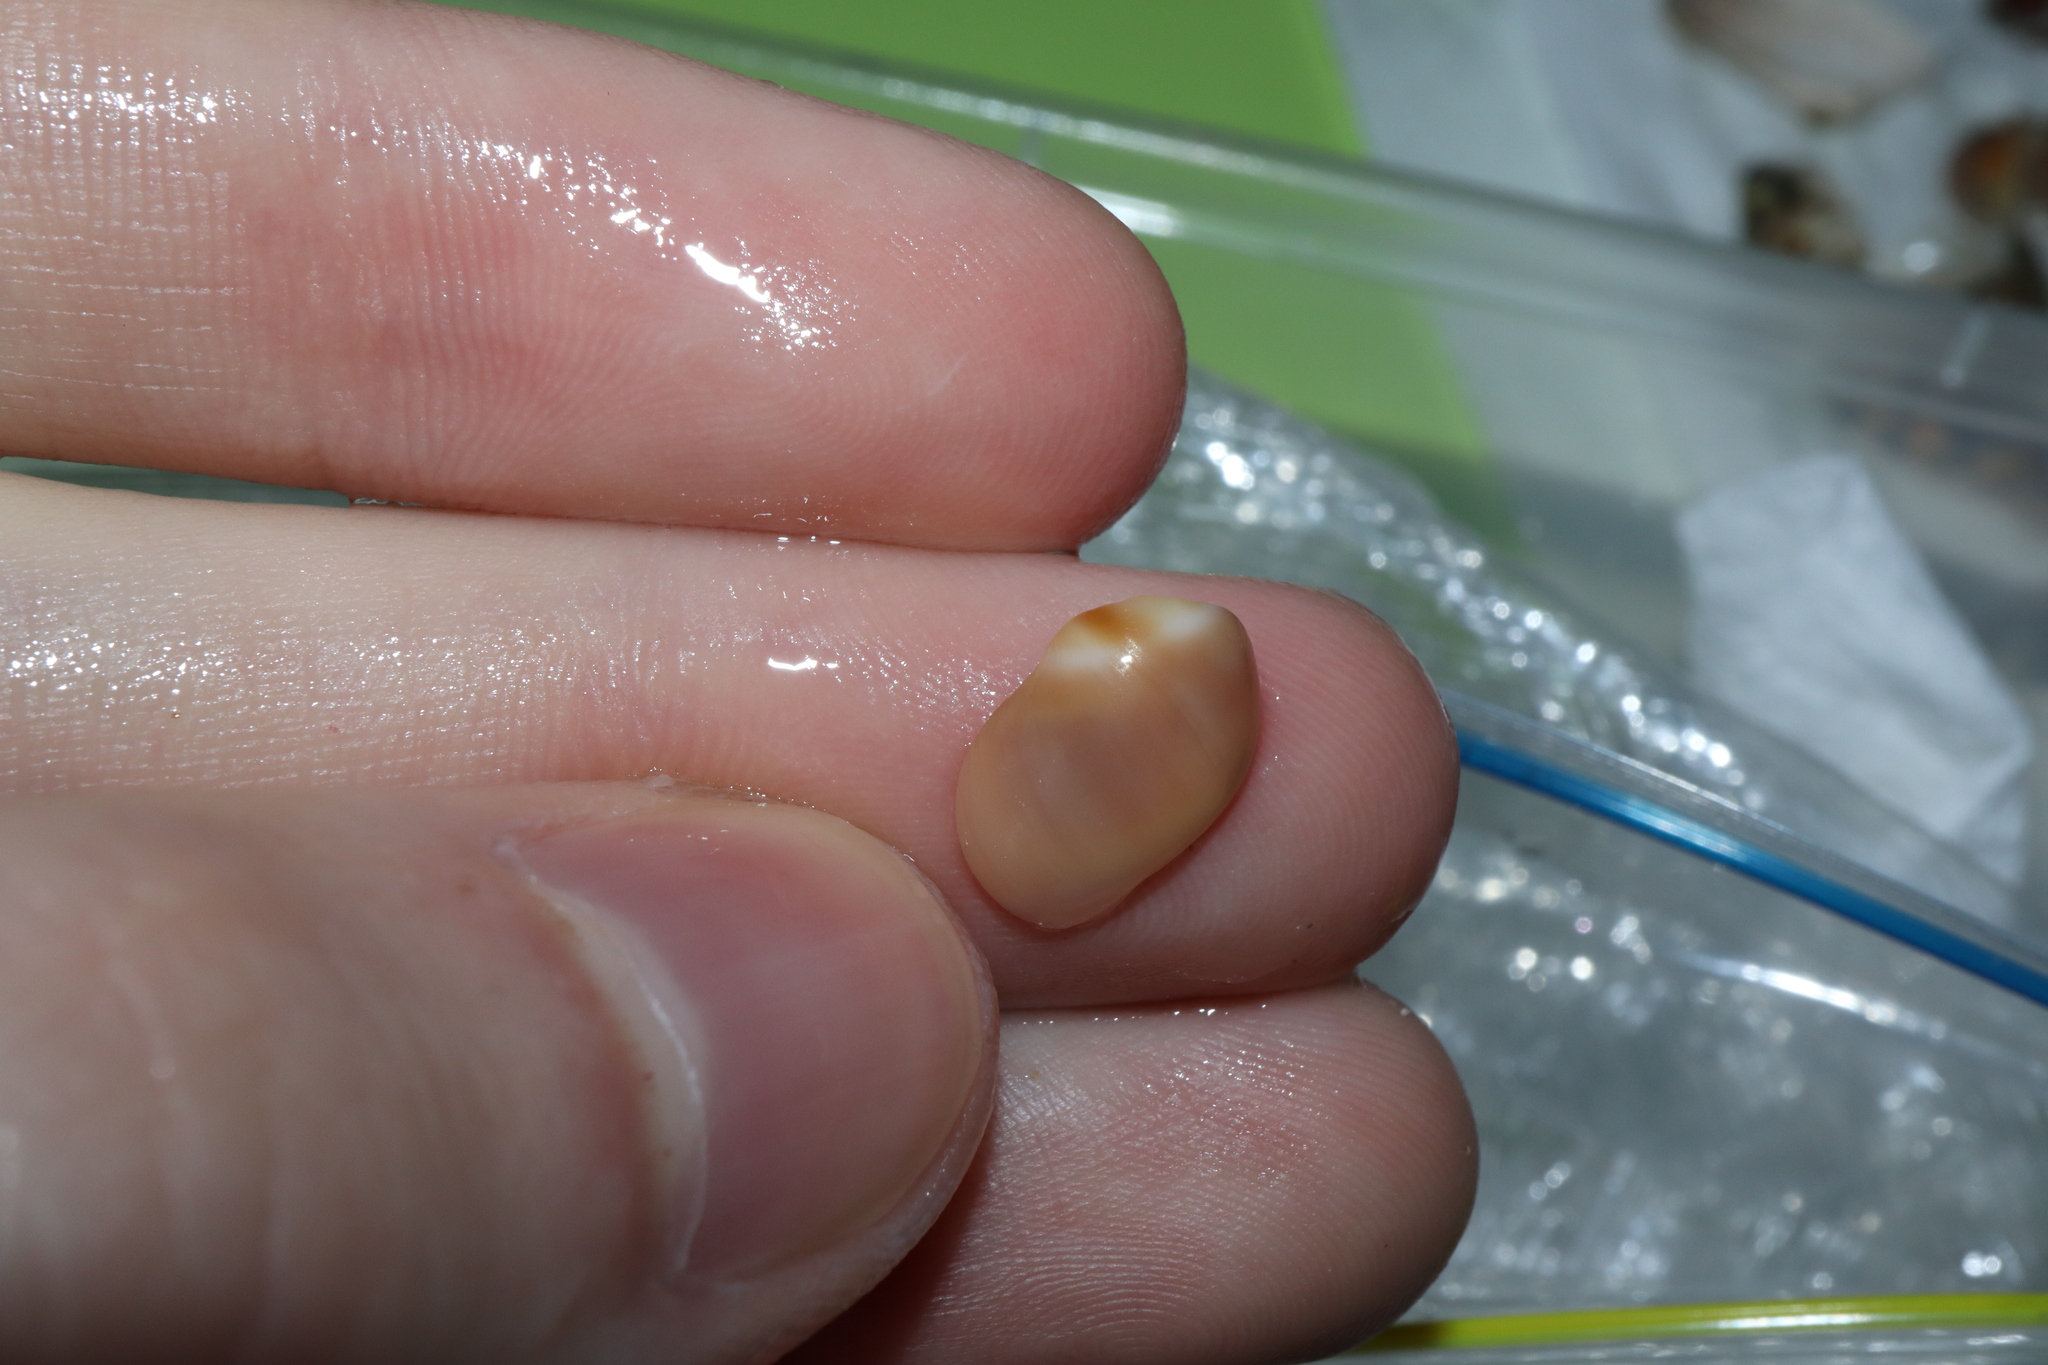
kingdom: Animalia
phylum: Mollusca
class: Gastropoda
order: Littorinimorpha
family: Naticidae
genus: Conuber
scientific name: Conuber conicum
